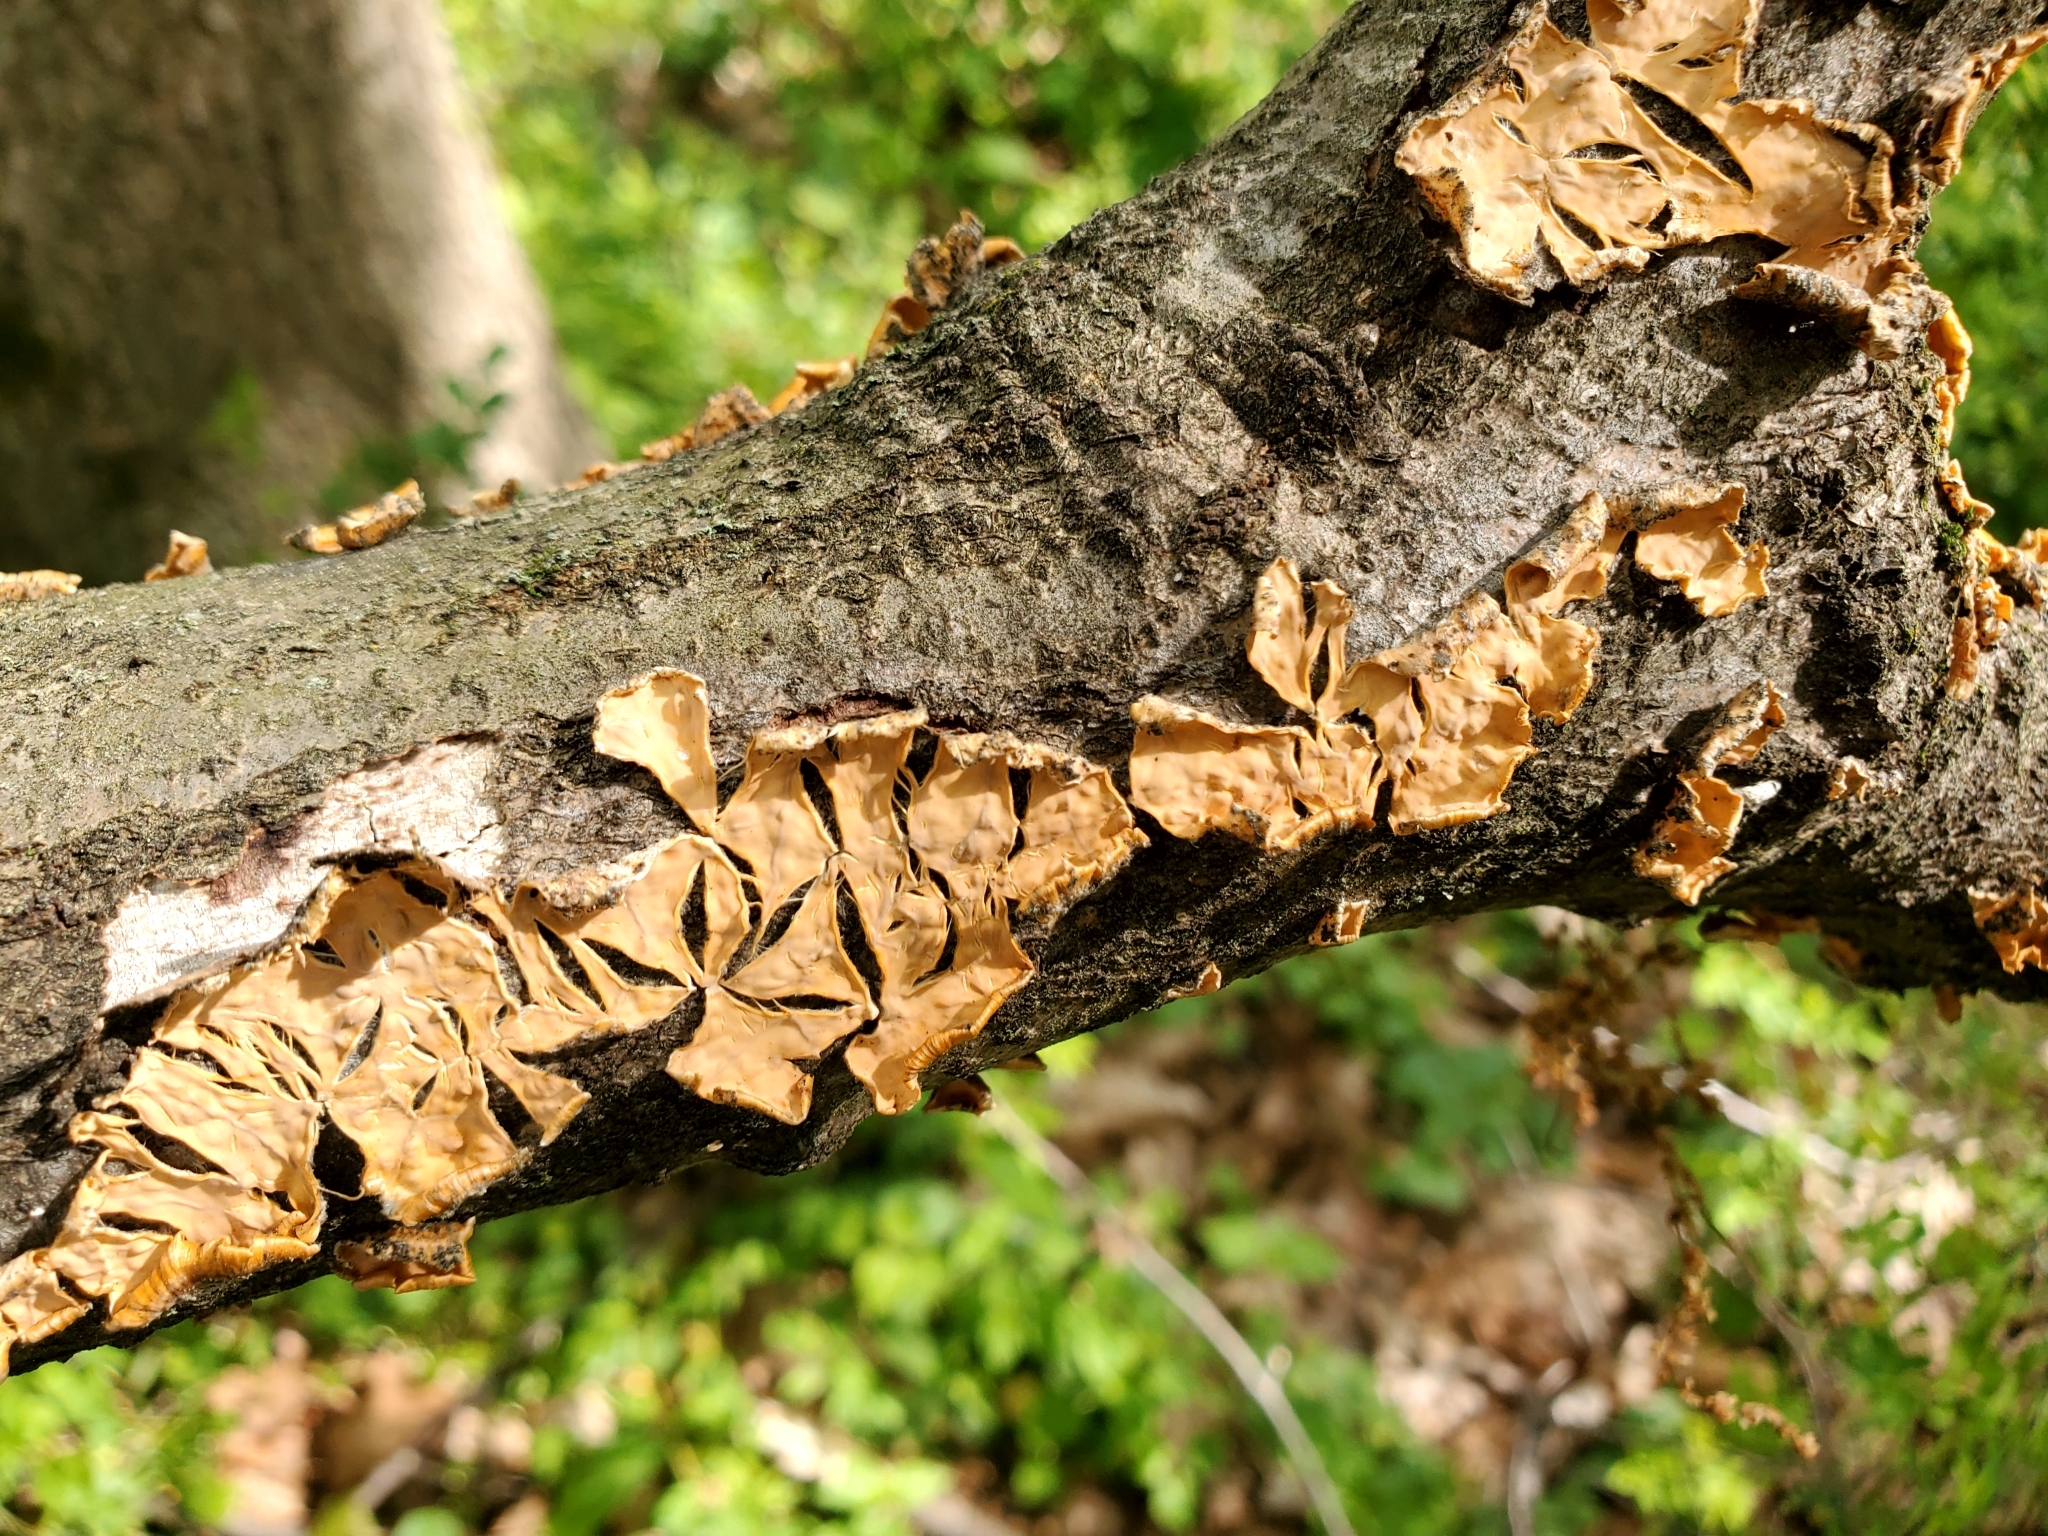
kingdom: Fungi
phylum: Basidiomycota
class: Agaricomycetes
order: Russulales
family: Stereaceae
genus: Stereum
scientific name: Stereum complicatum
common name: Crowded parchment
